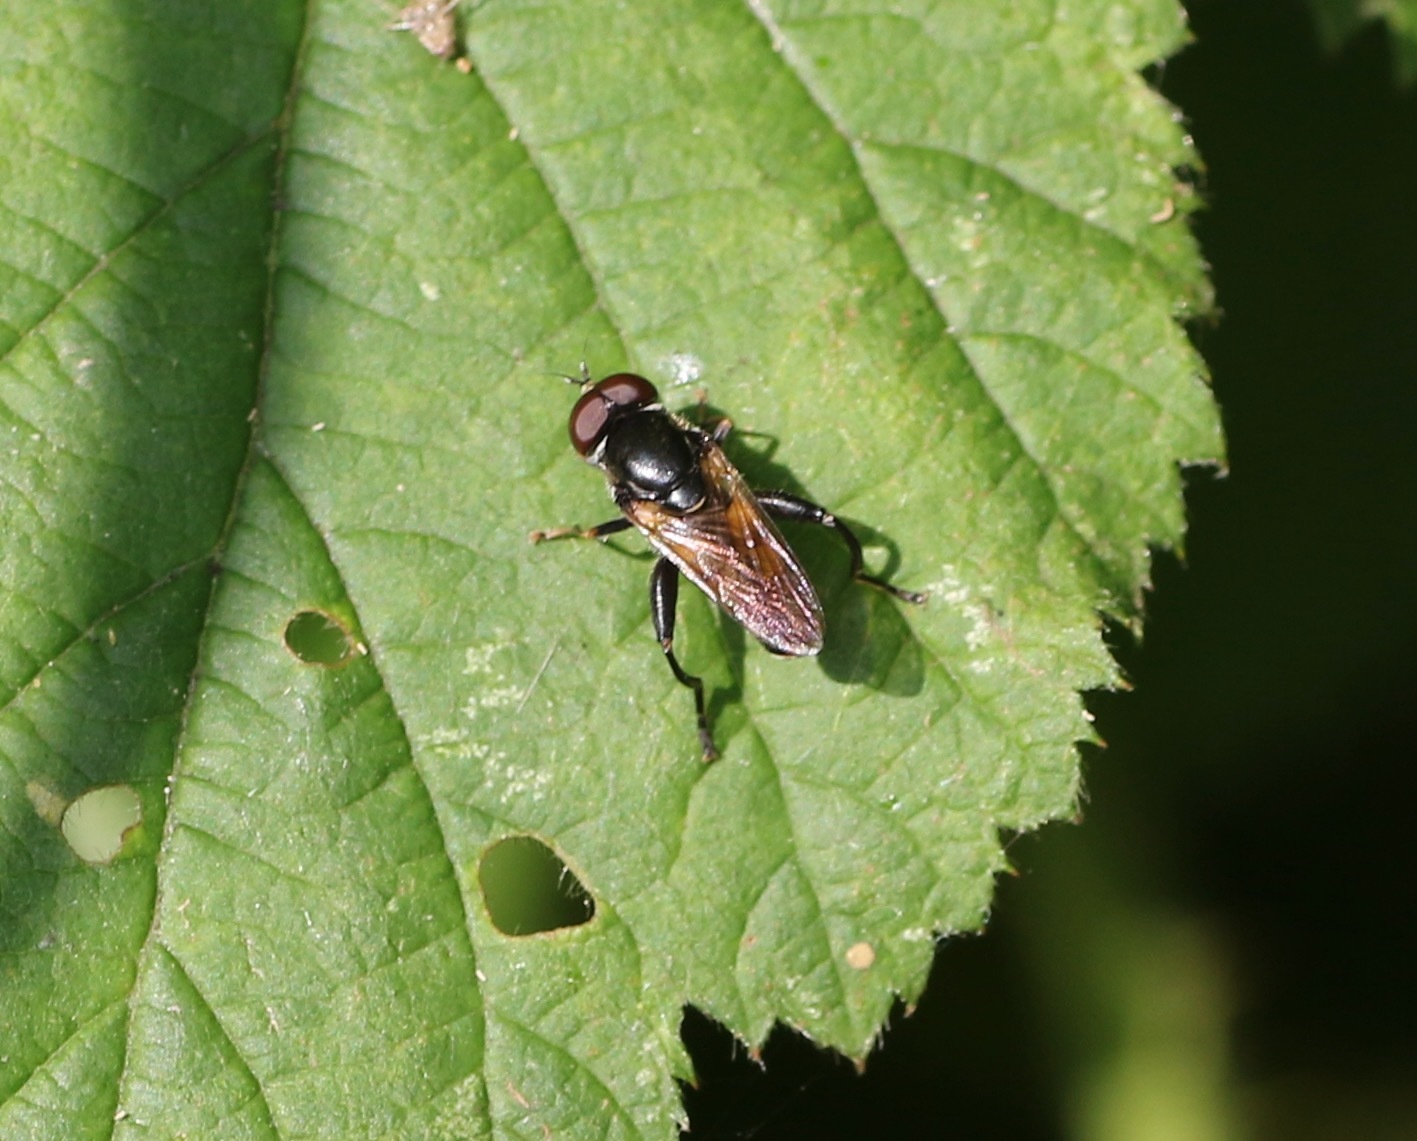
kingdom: Animalia
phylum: Arthropoda
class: Insecta
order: Diptera
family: Syrphidae
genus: Tropidia
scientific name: Tropidia scita
